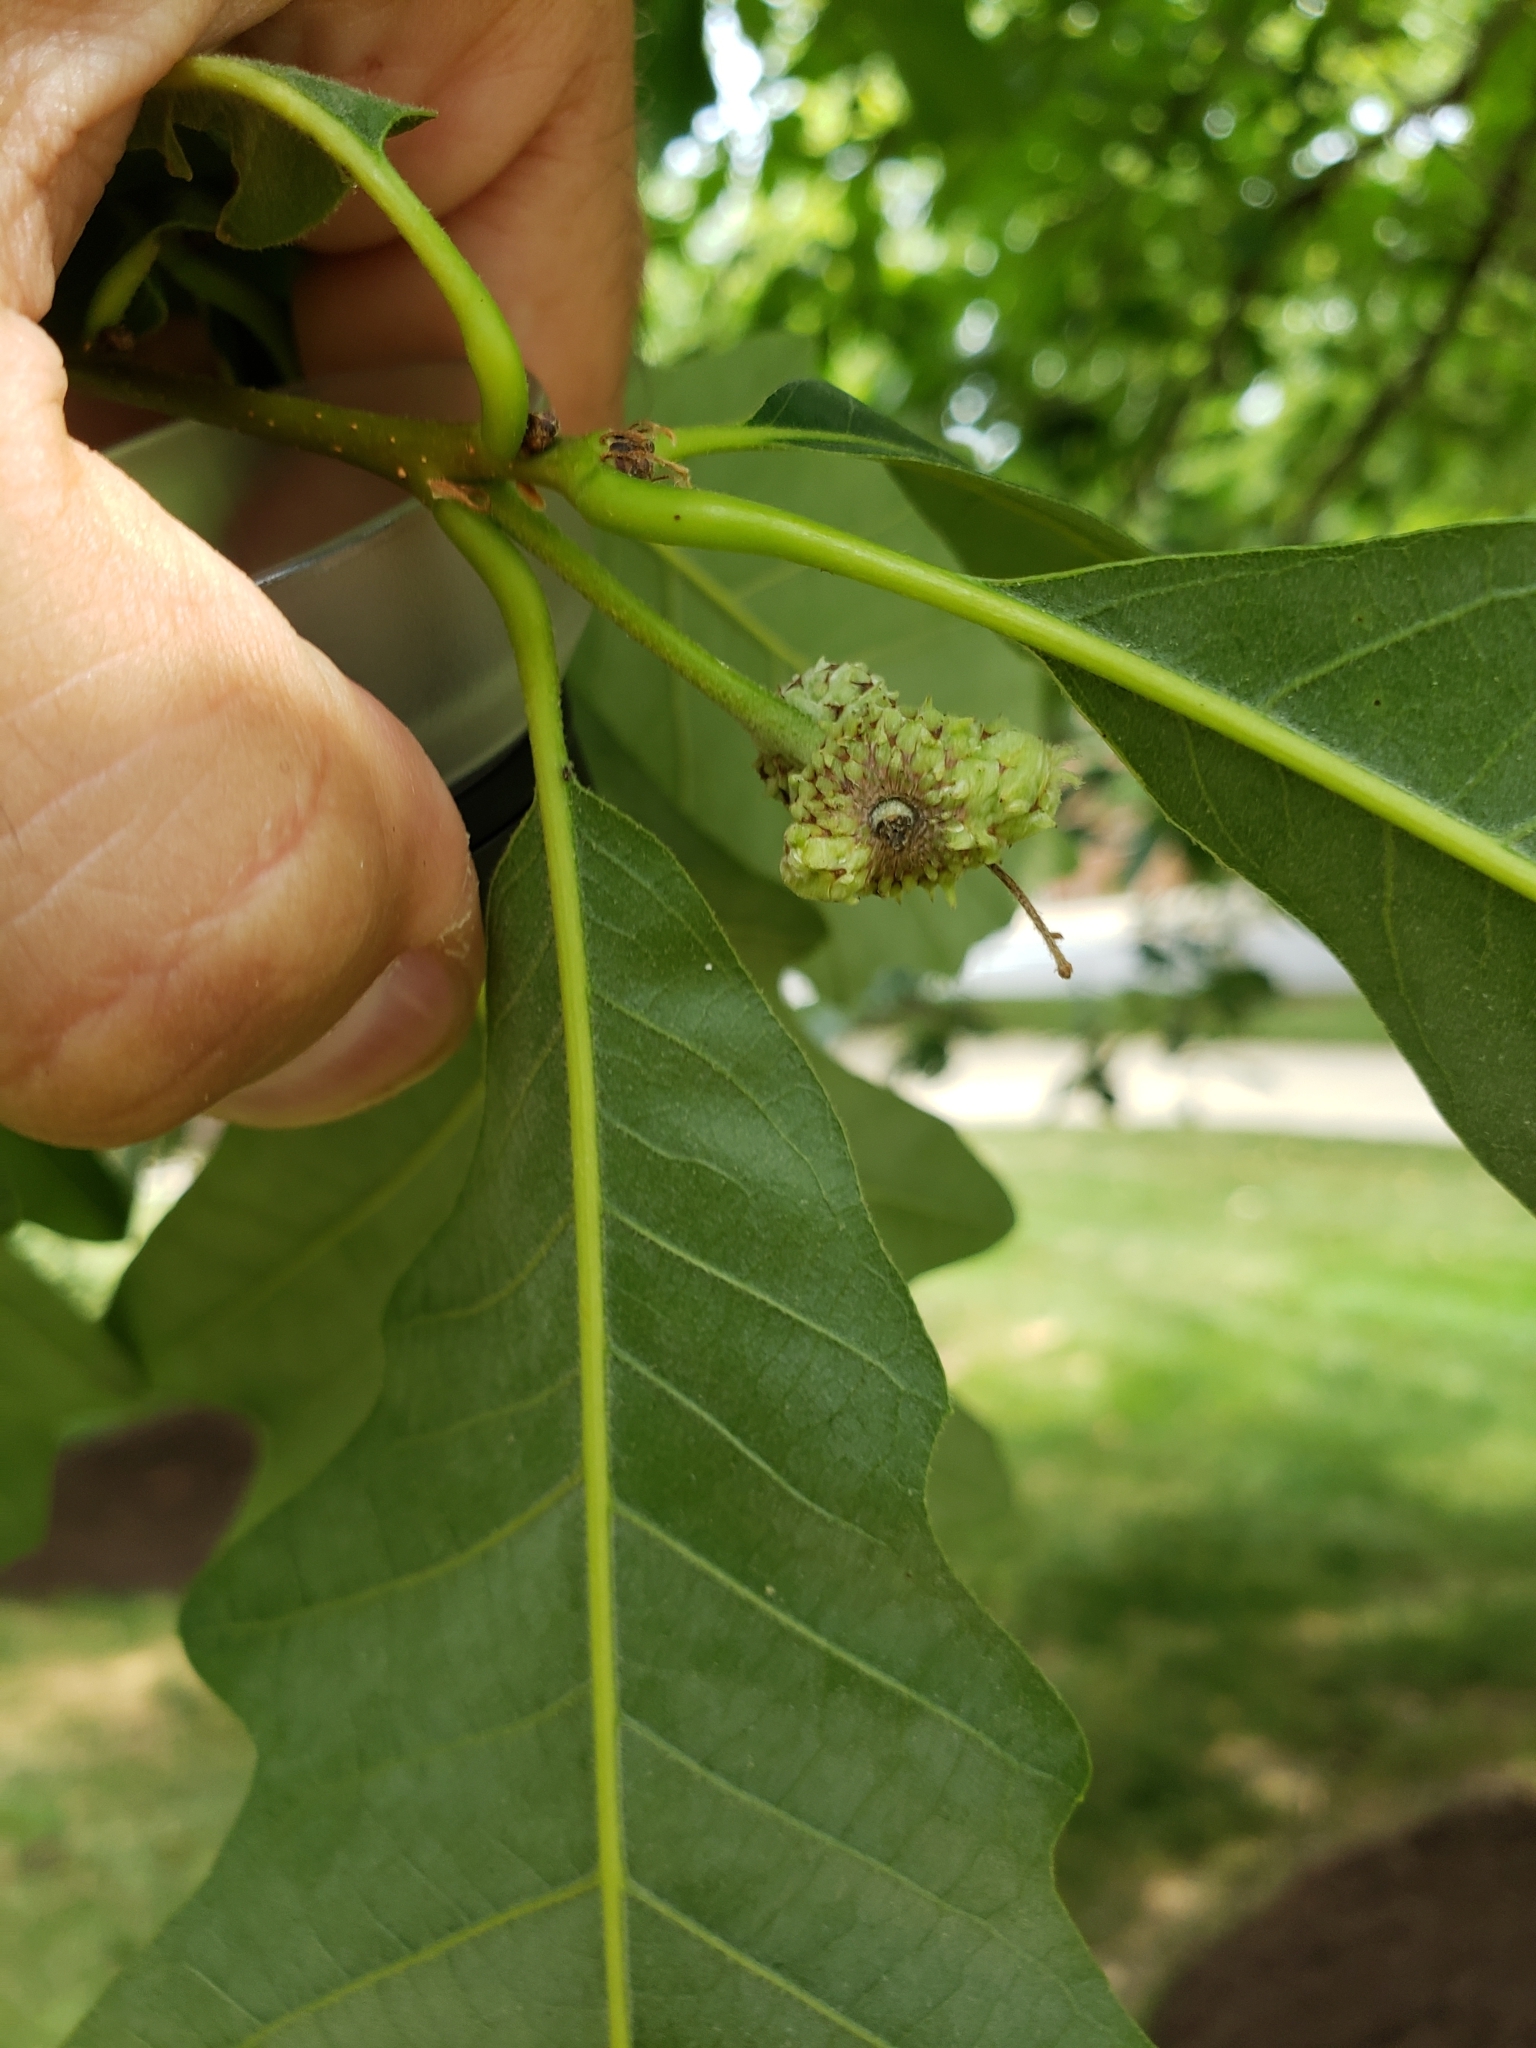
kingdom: Animalia
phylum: Arthropoda
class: Insecta
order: Hymenoptera
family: Cynipidae
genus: Andricus
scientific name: Andricus
